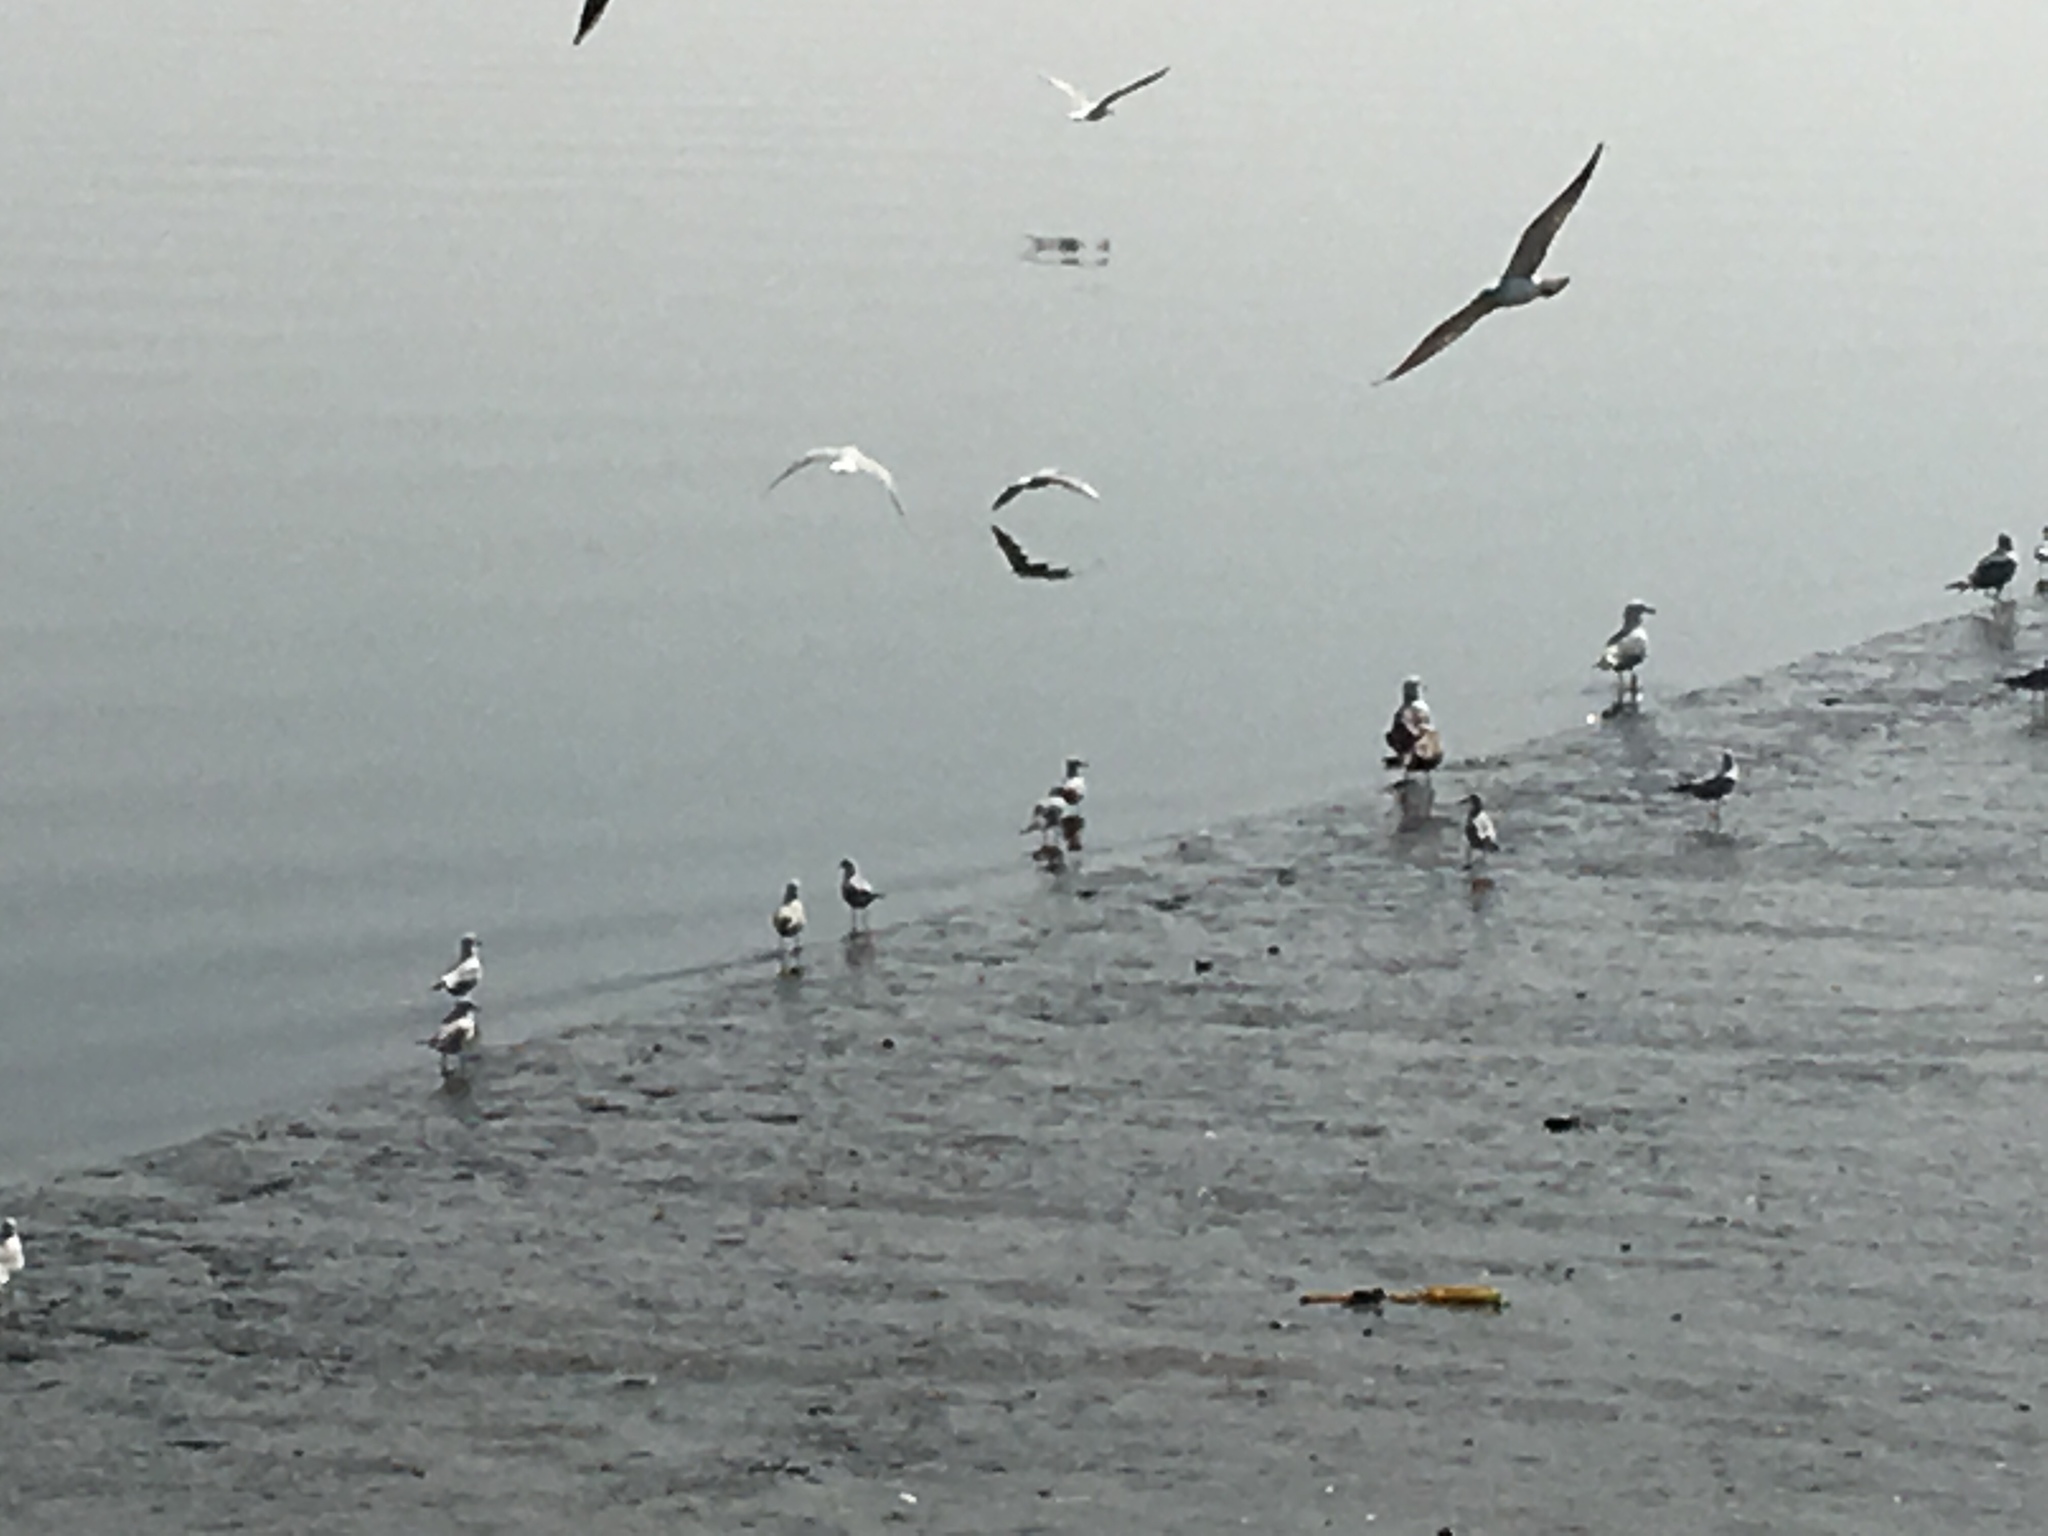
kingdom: Animalia
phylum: Chordata
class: Aves
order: Charadriiformes
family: Laridae
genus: Chroicocephalus
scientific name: Chroicocephalus ridibundus
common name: Black-headed gull
